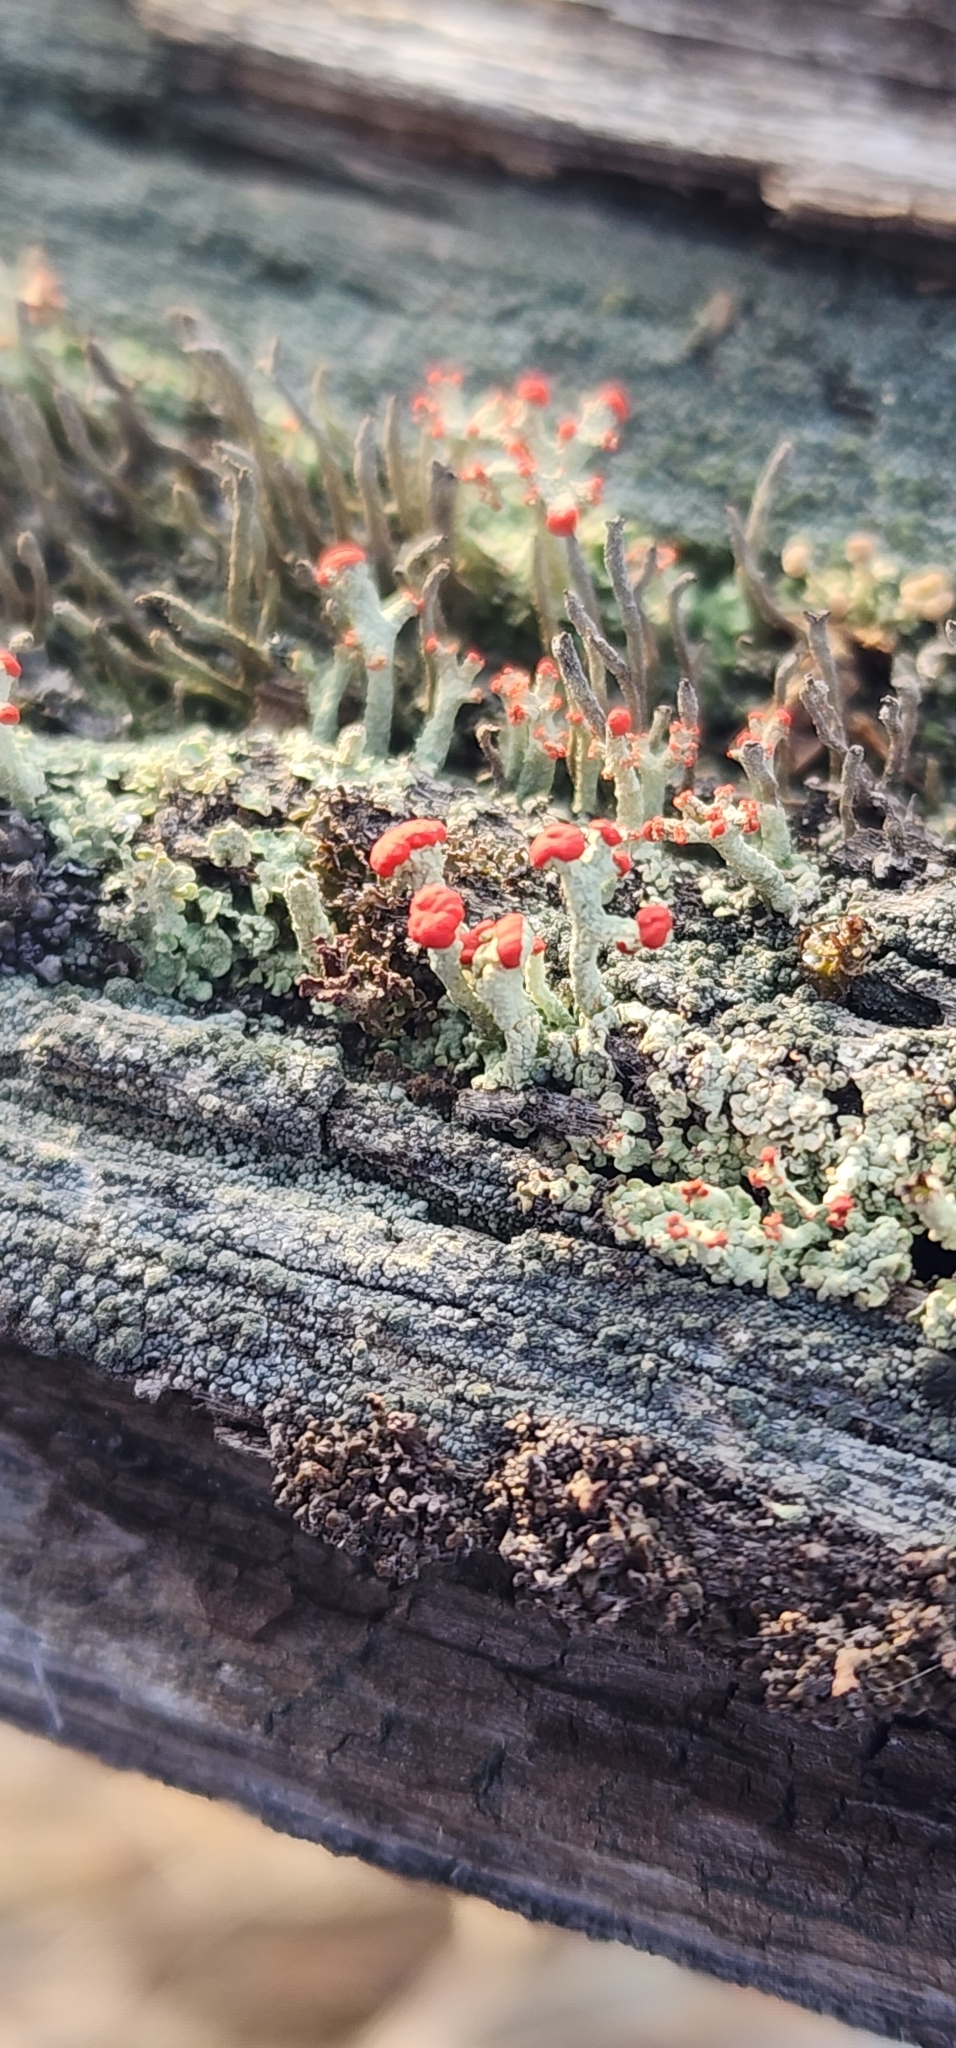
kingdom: Fungi
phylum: Ascomycota
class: Lecanoromycetes
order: Lecanorales
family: Cladoniaceae
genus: Cladonia
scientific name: Cladonia cristatella
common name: British soldier lichen
